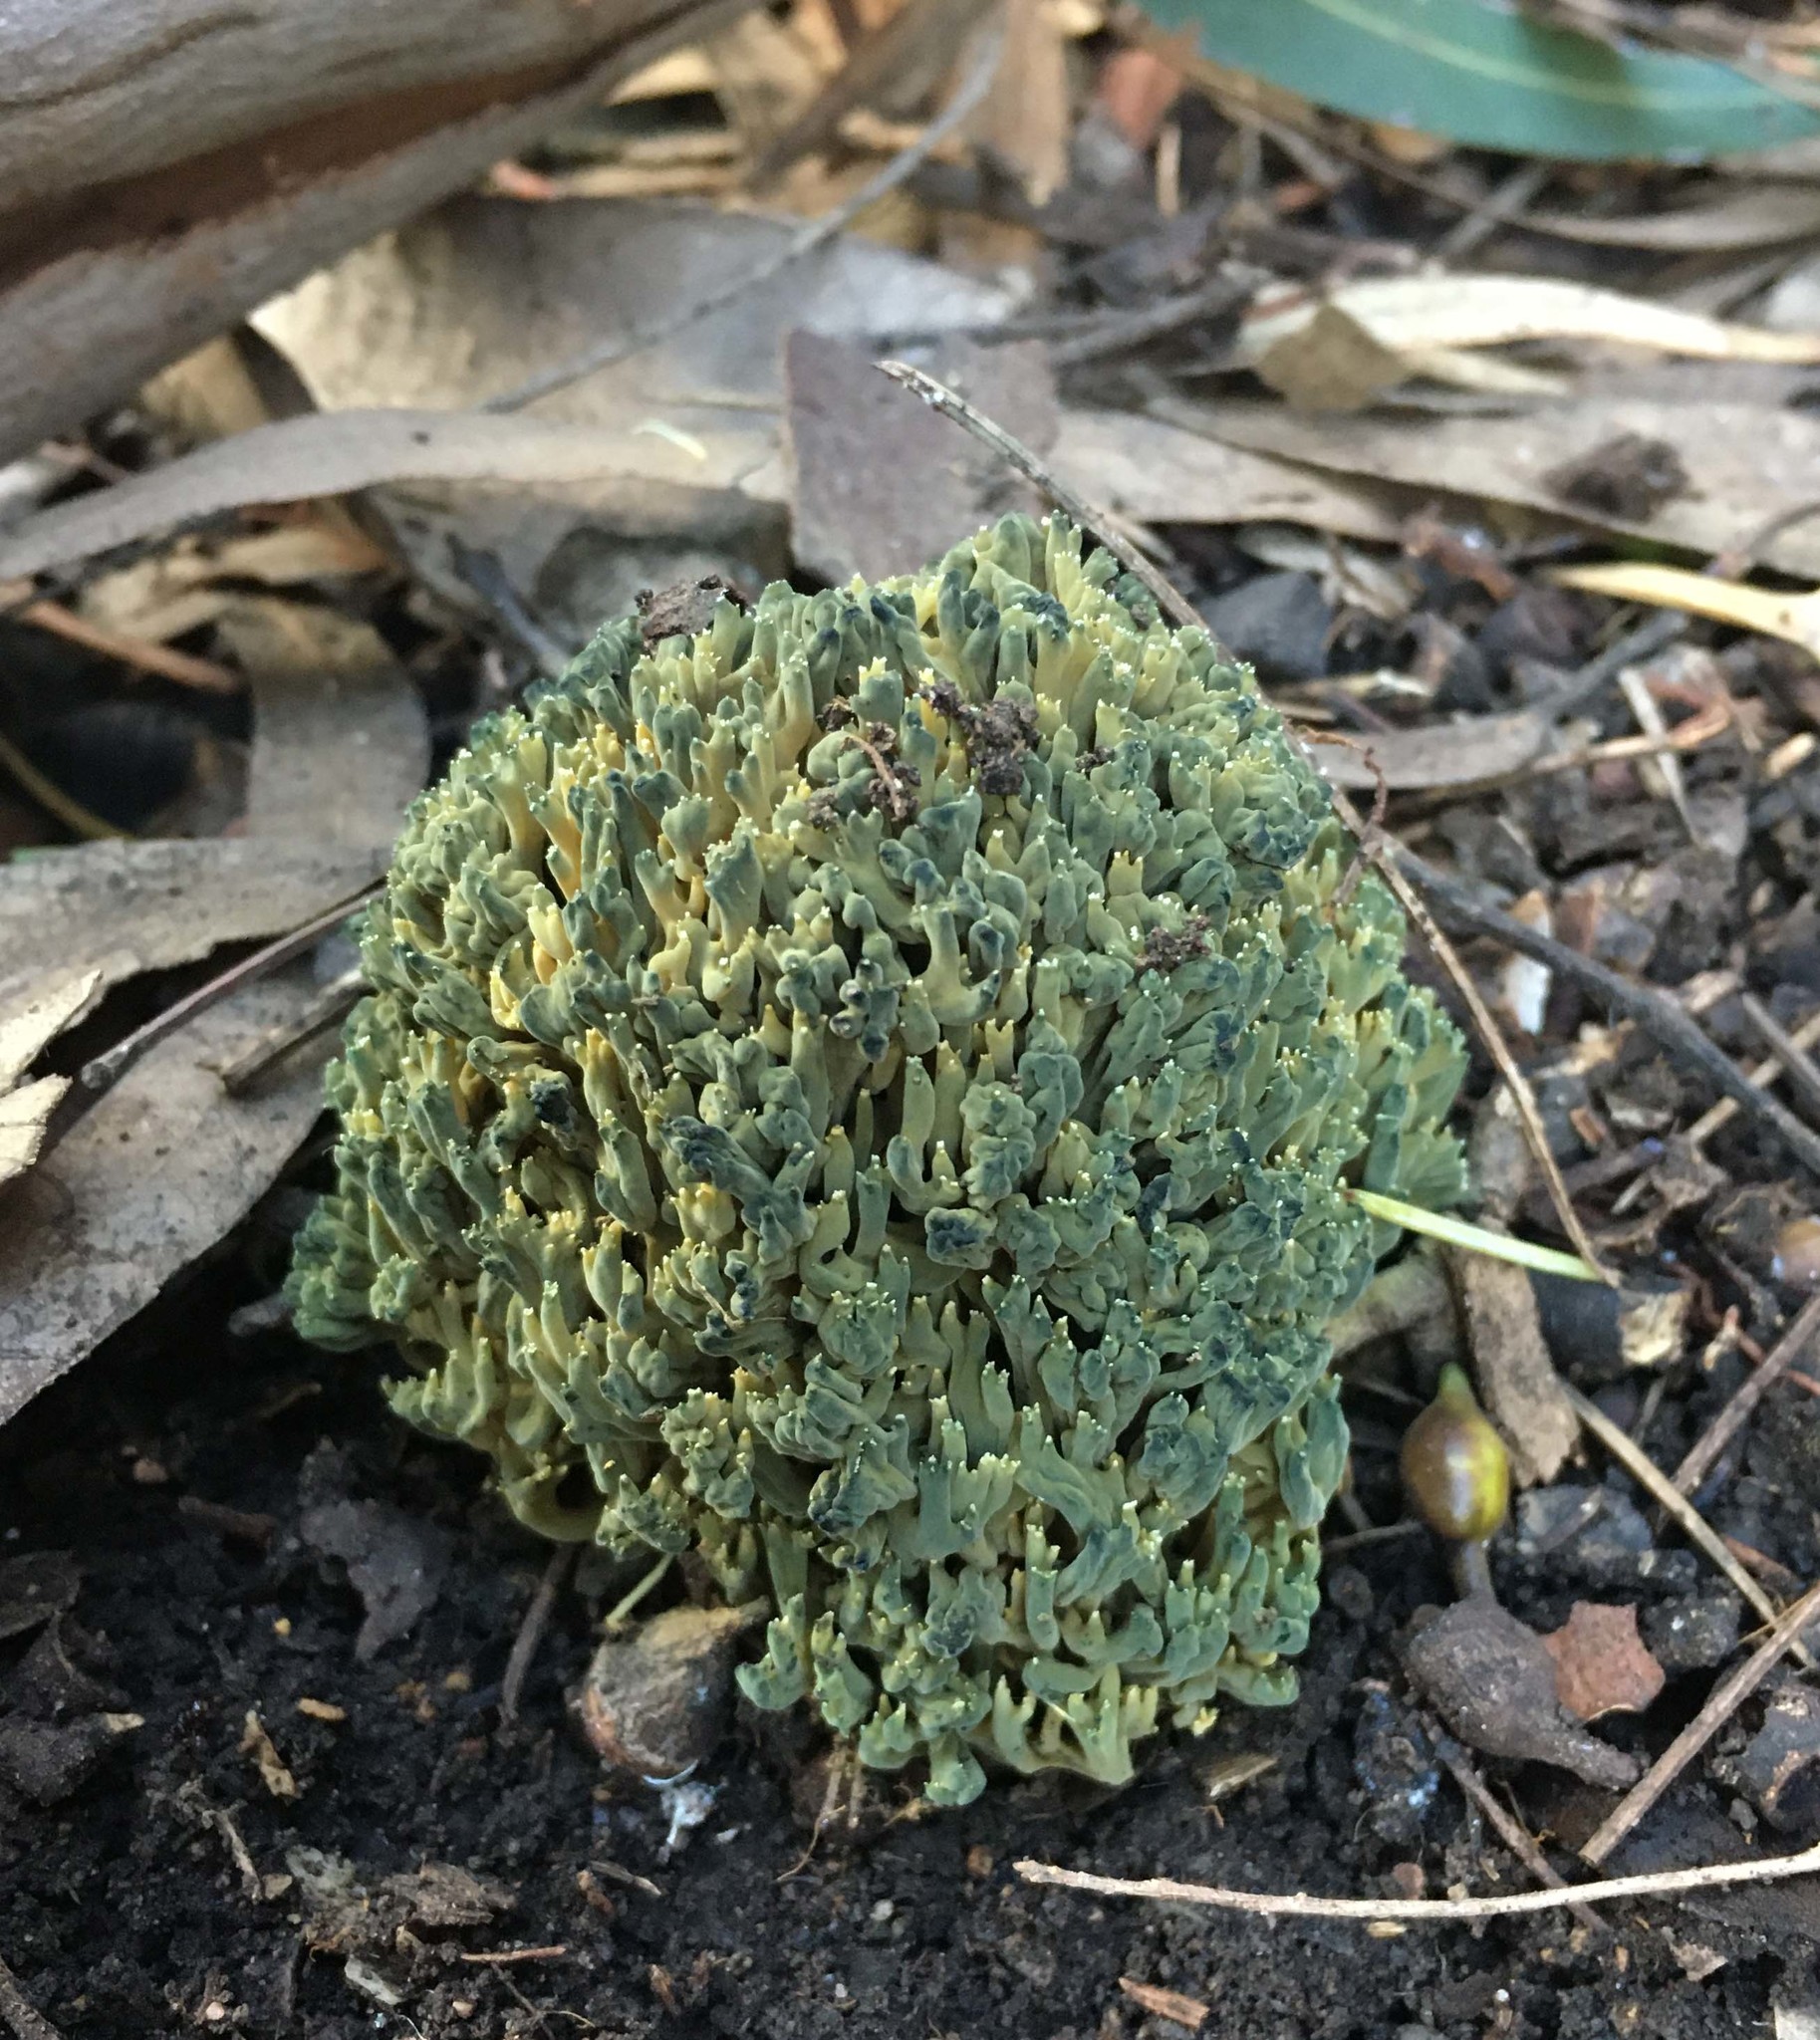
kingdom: Fungi
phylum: Basidiomycota
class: Agaricomycetes
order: Gomphales
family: Gomphaceae
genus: Phaeoclavulina
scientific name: Phaeoclavulina
